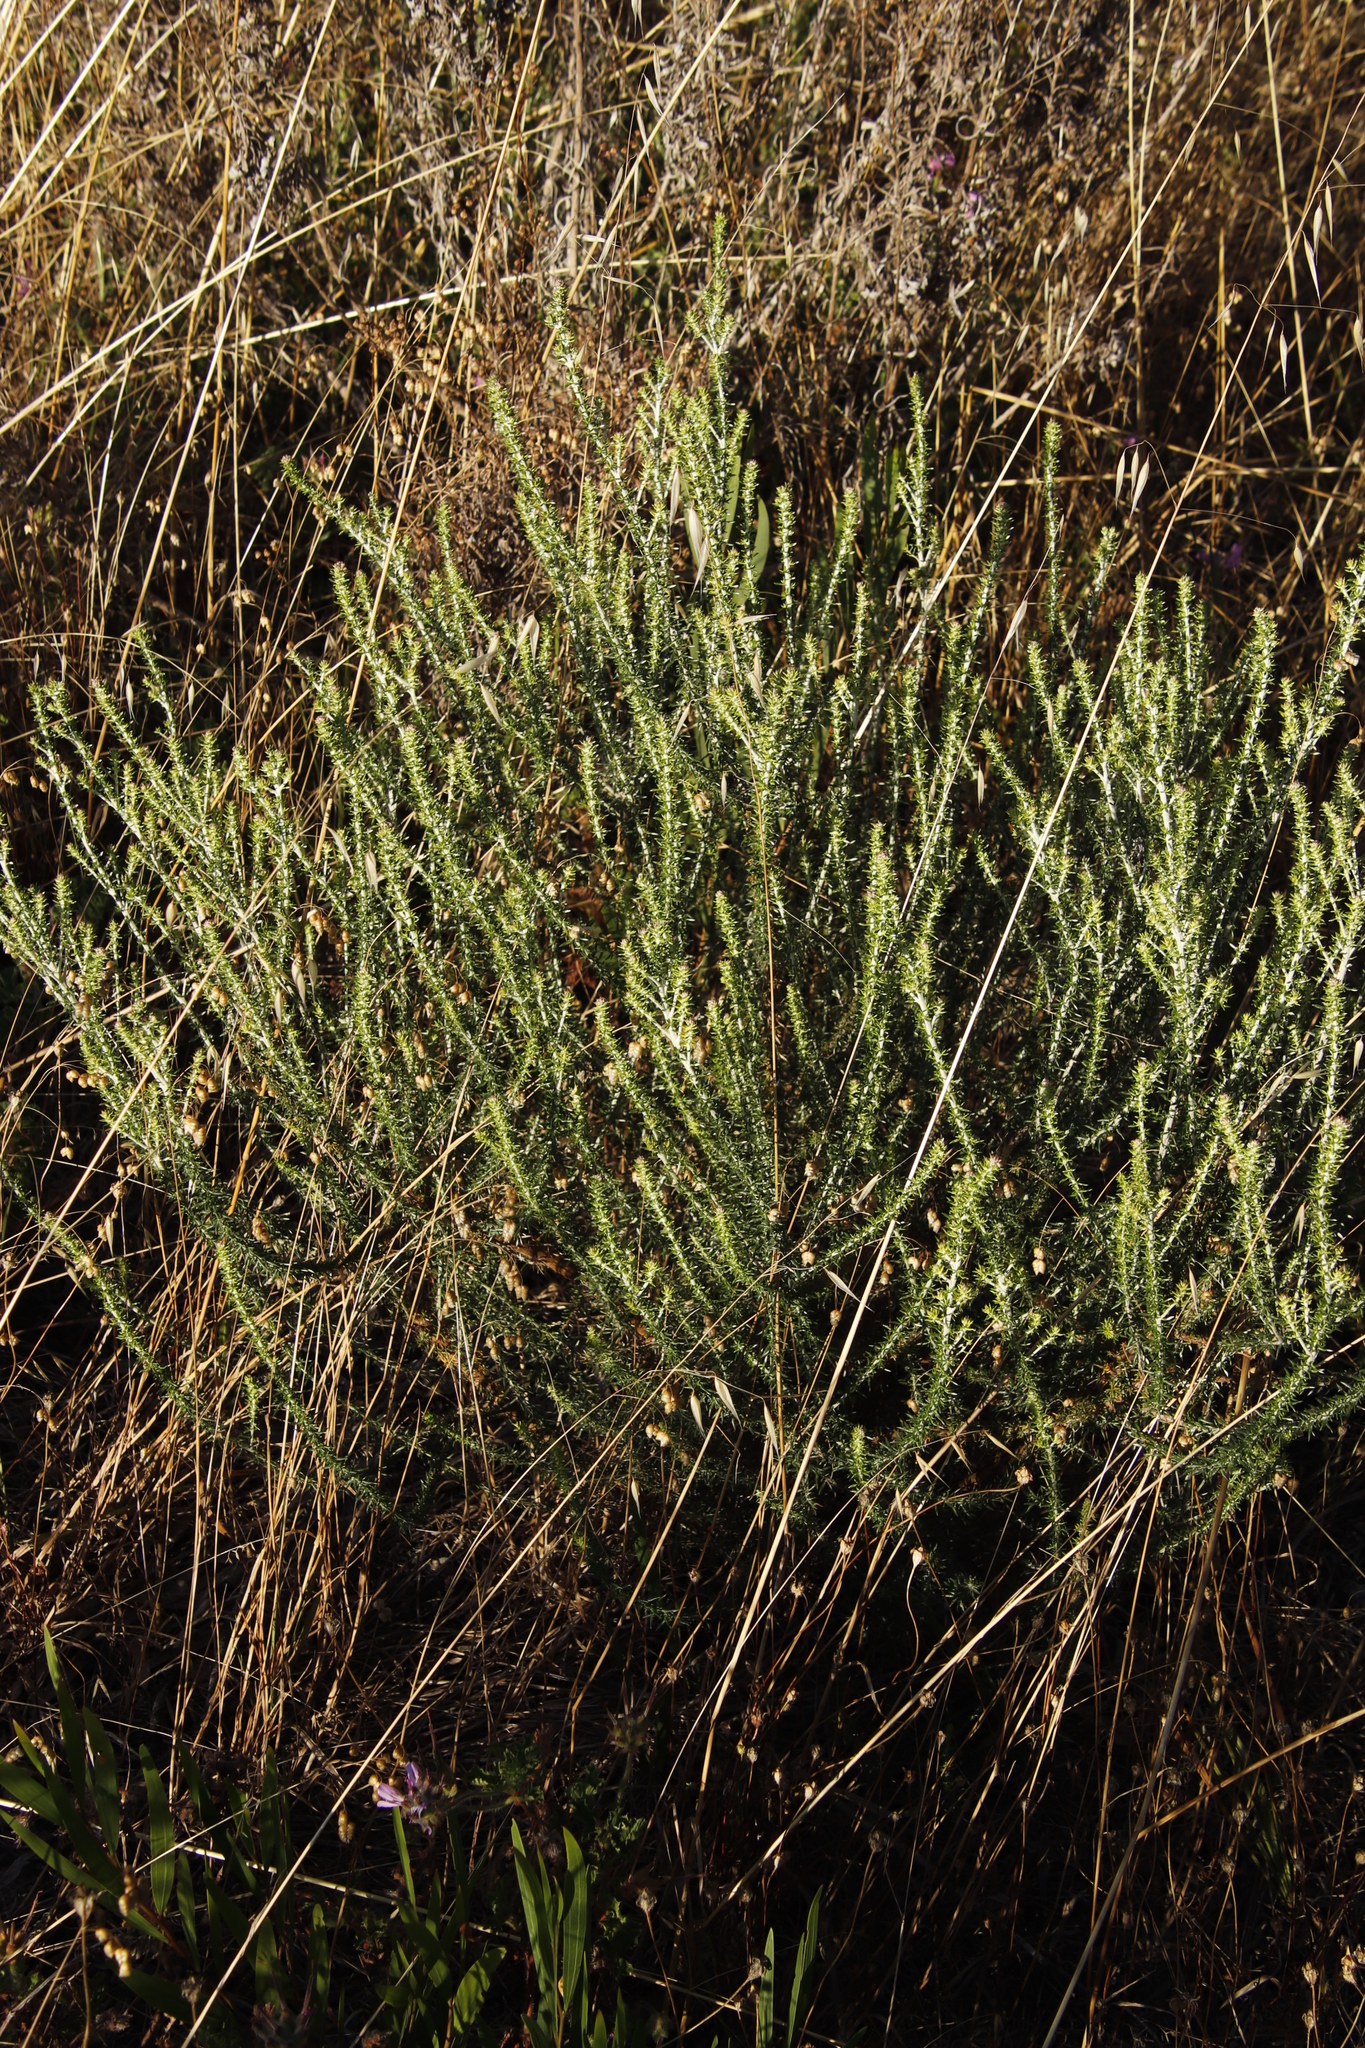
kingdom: Plantae
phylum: Tracheophyta
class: Magnoliopsida
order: Malvales
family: Thymelaeaceae
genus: Passerina
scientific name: Passerina corymbosa
